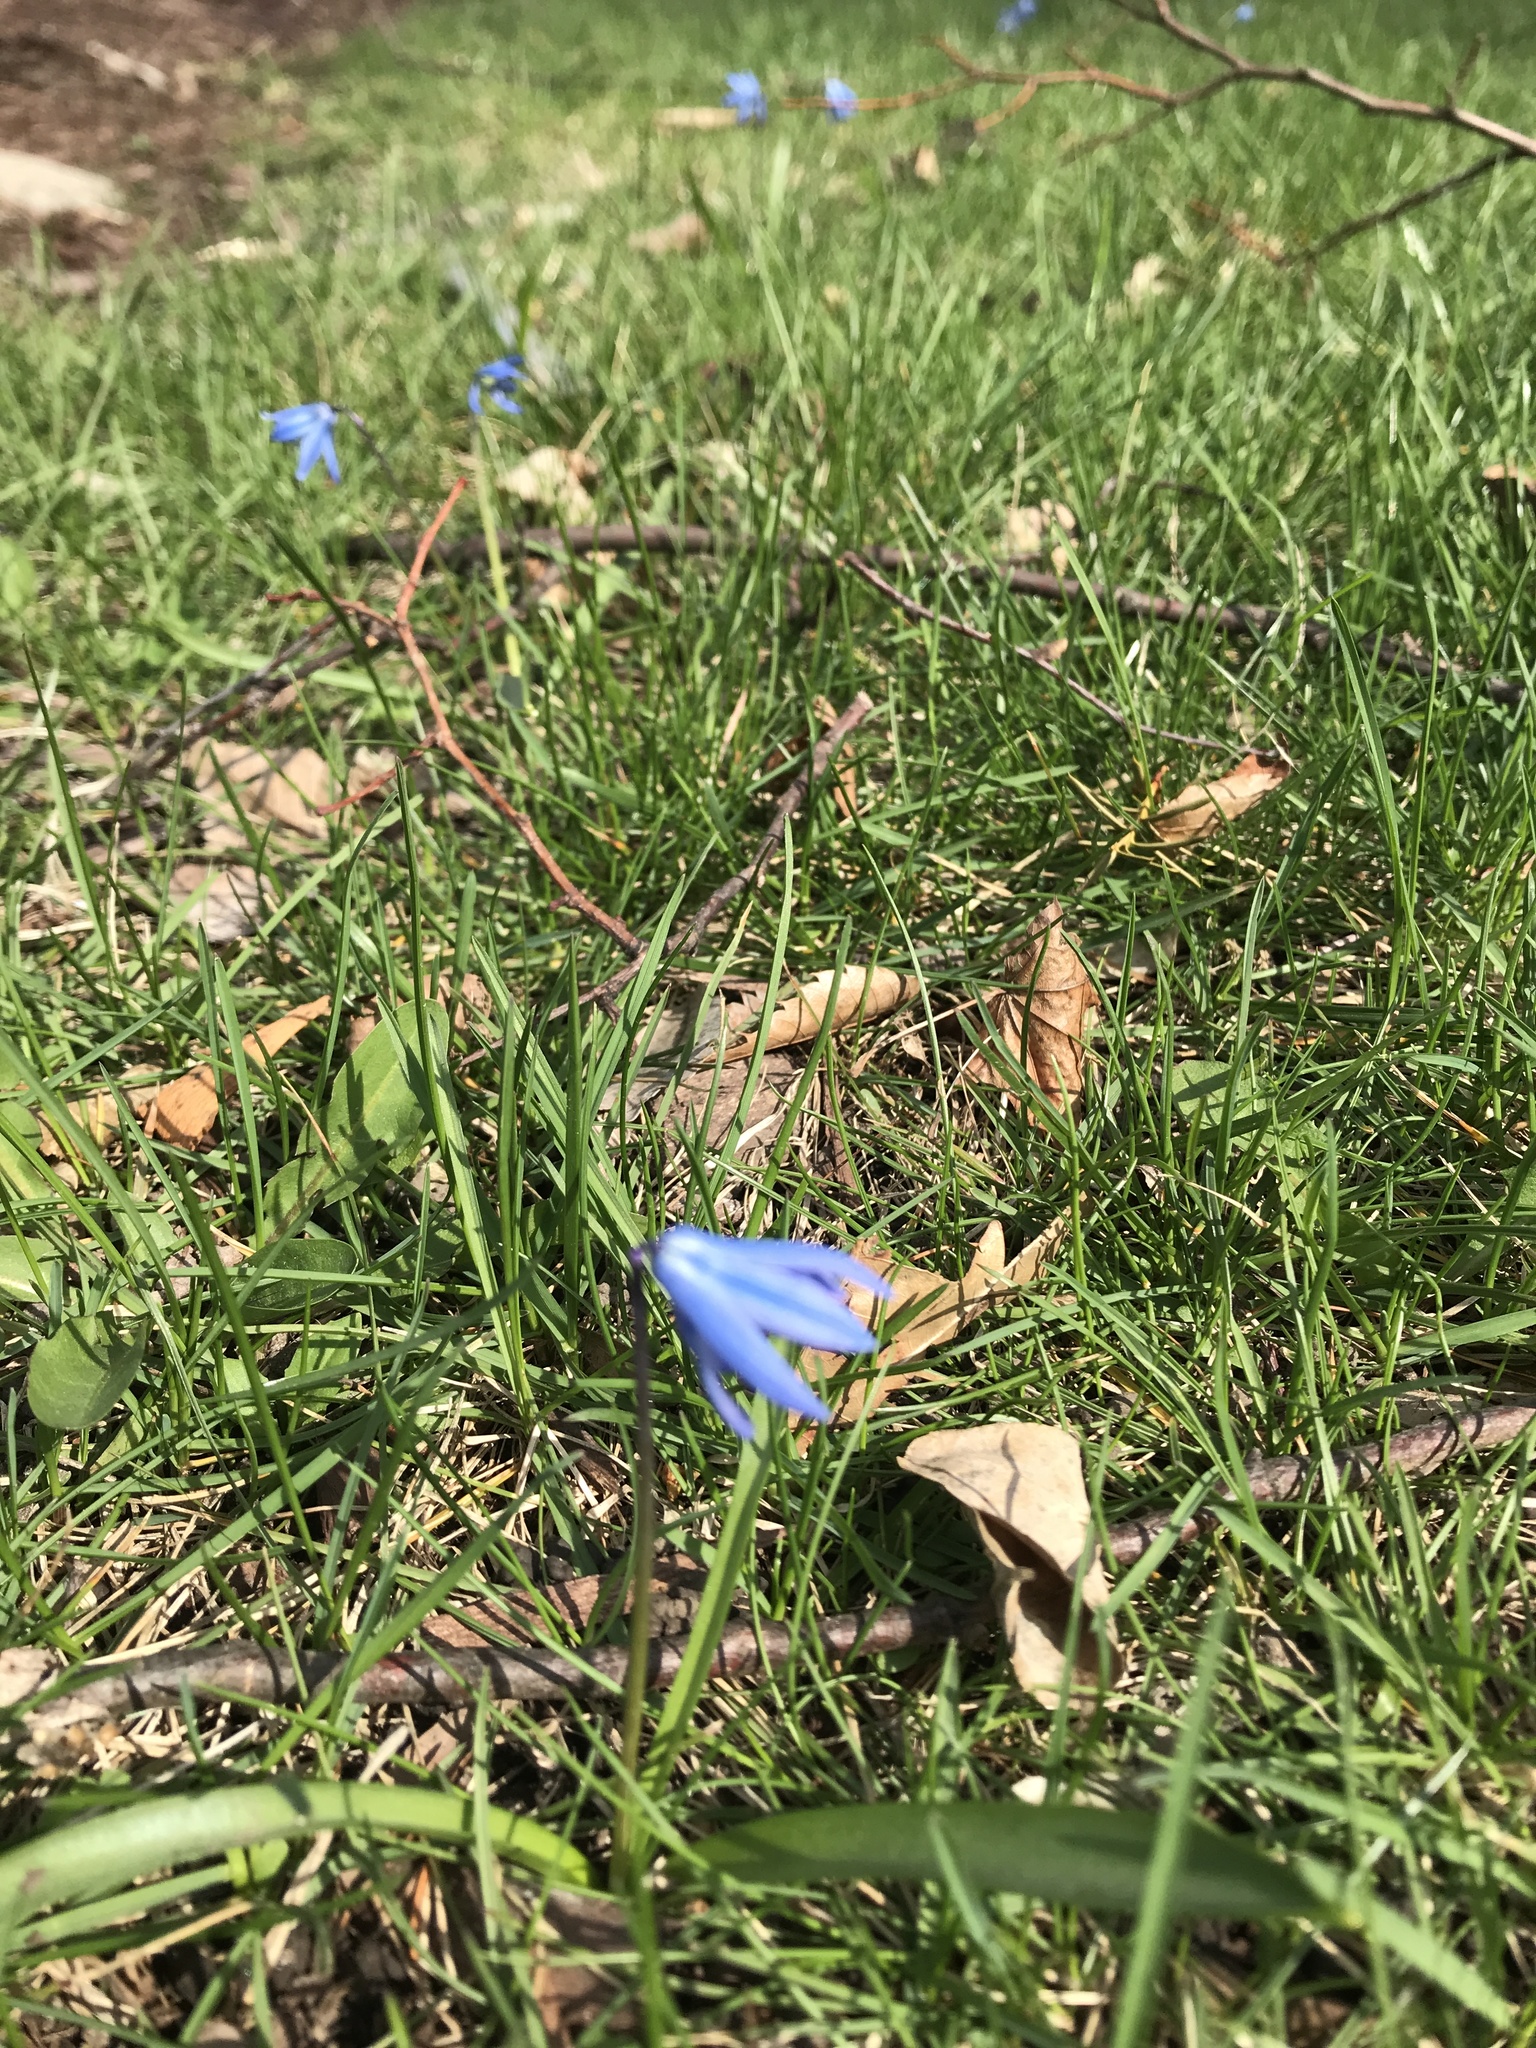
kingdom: Plantae
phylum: Tracheophyta
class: Liliopsida
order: Asparagales
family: Asparagaceae
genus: Scilla
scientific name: Scilla siberica
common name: Siberian squill
